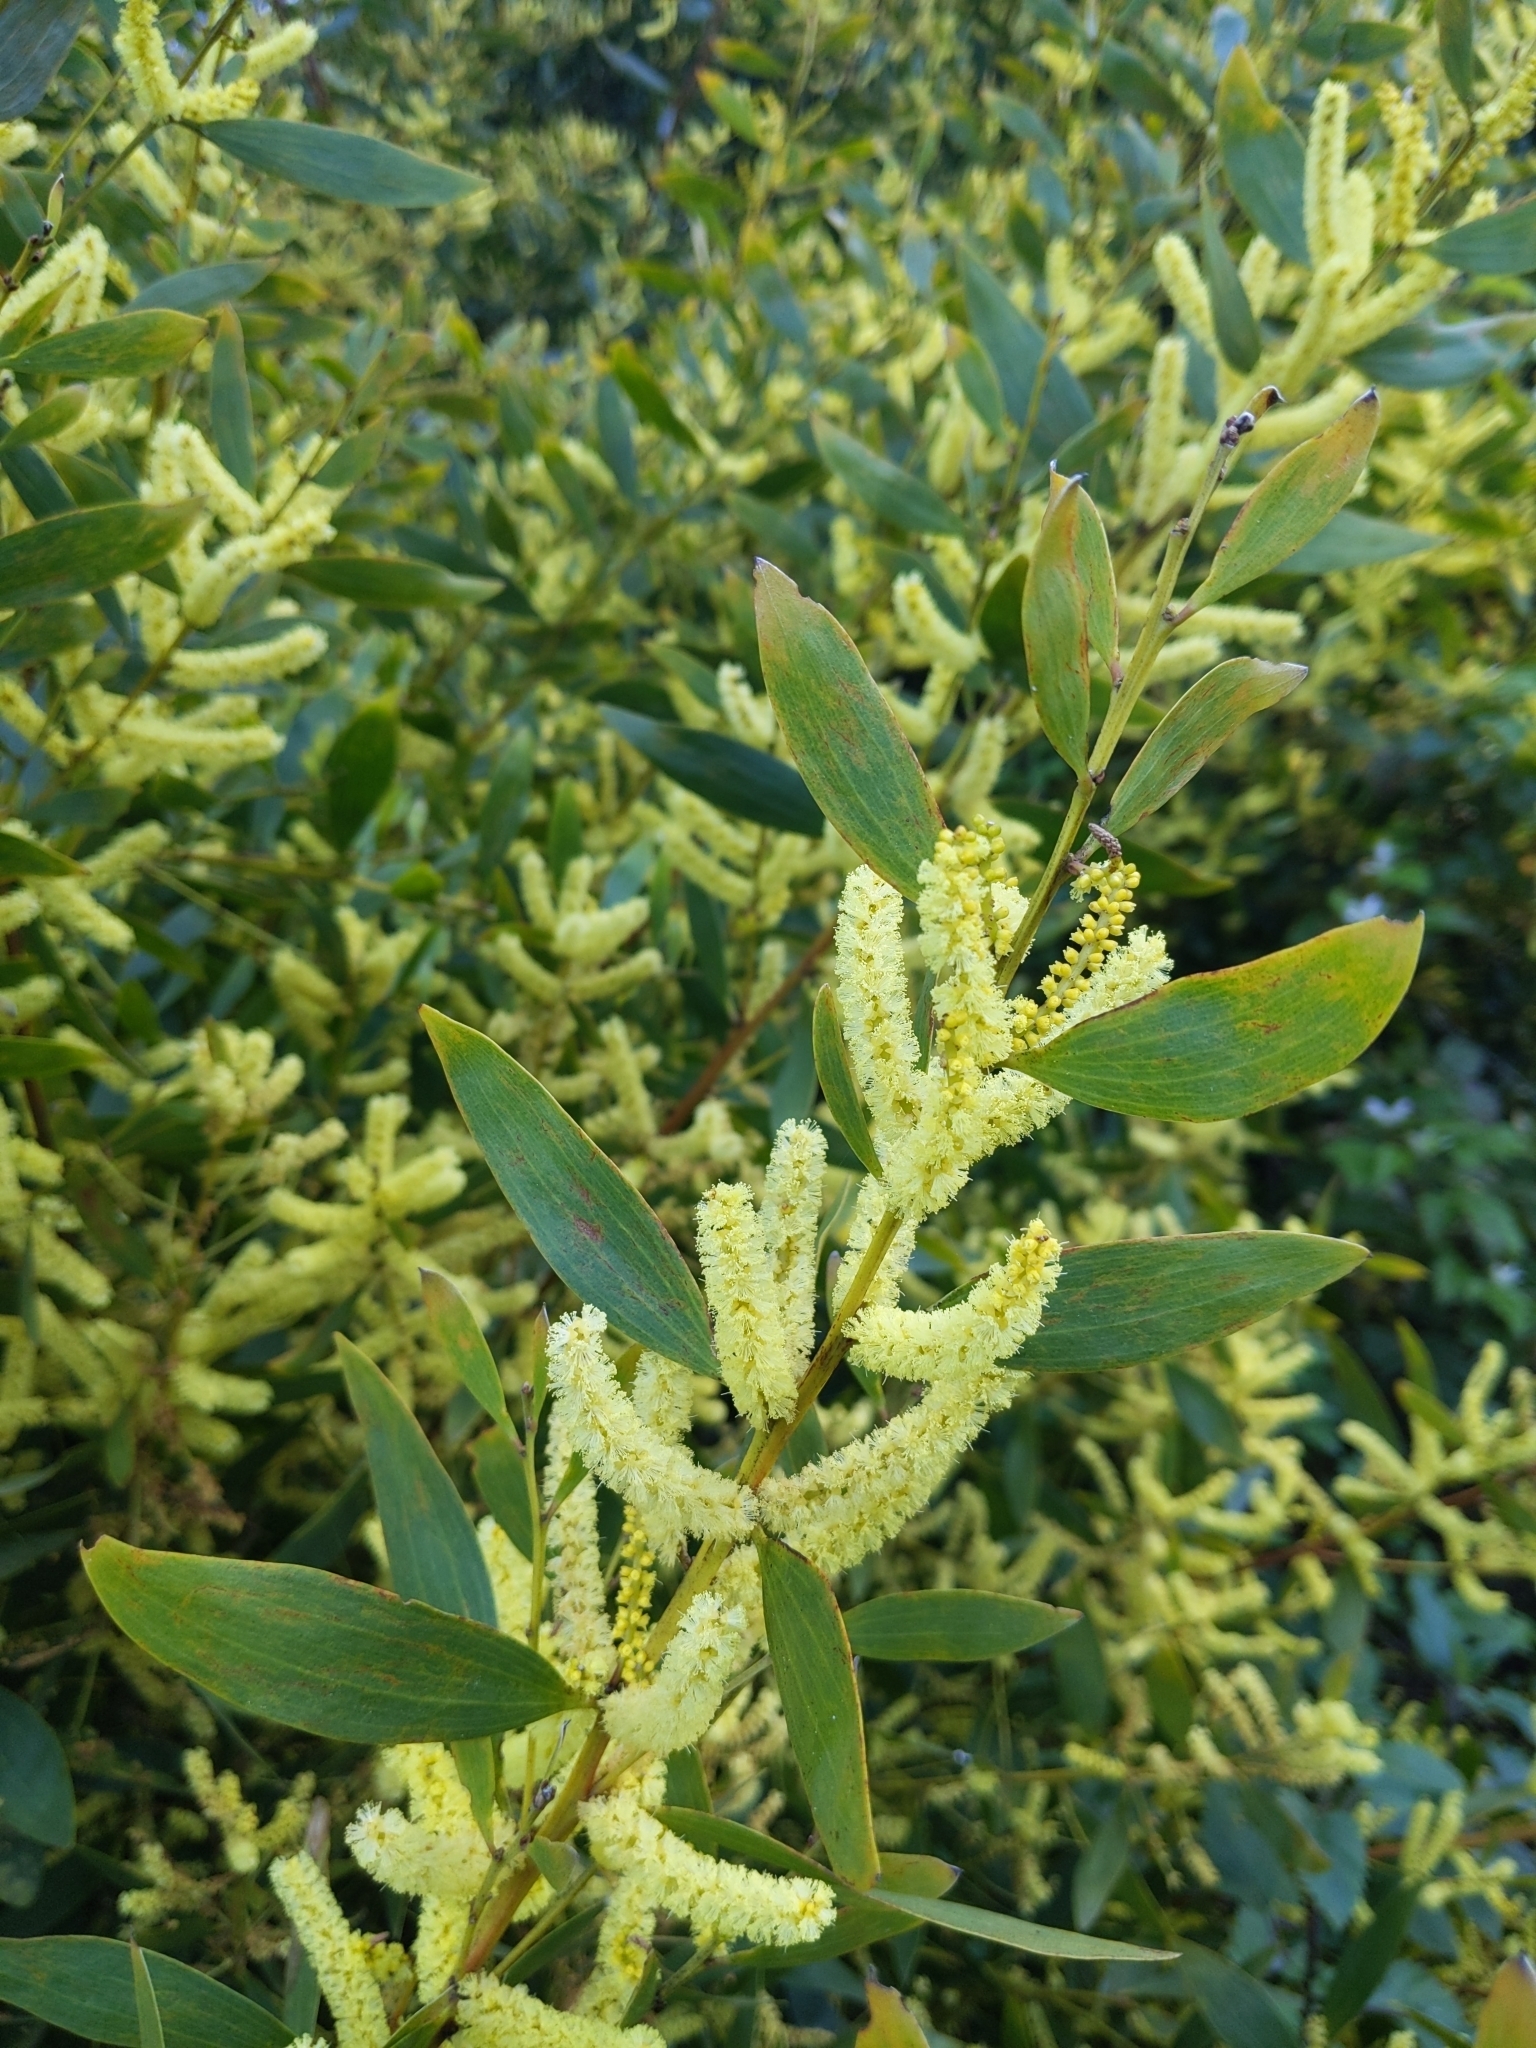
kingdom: Plantae
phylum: Tracheophyta
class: Magnoliopsida
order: Fabales
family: Fabaceae
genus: Acacia
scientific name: Acacia longifolia
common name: Sydney golden wattle
